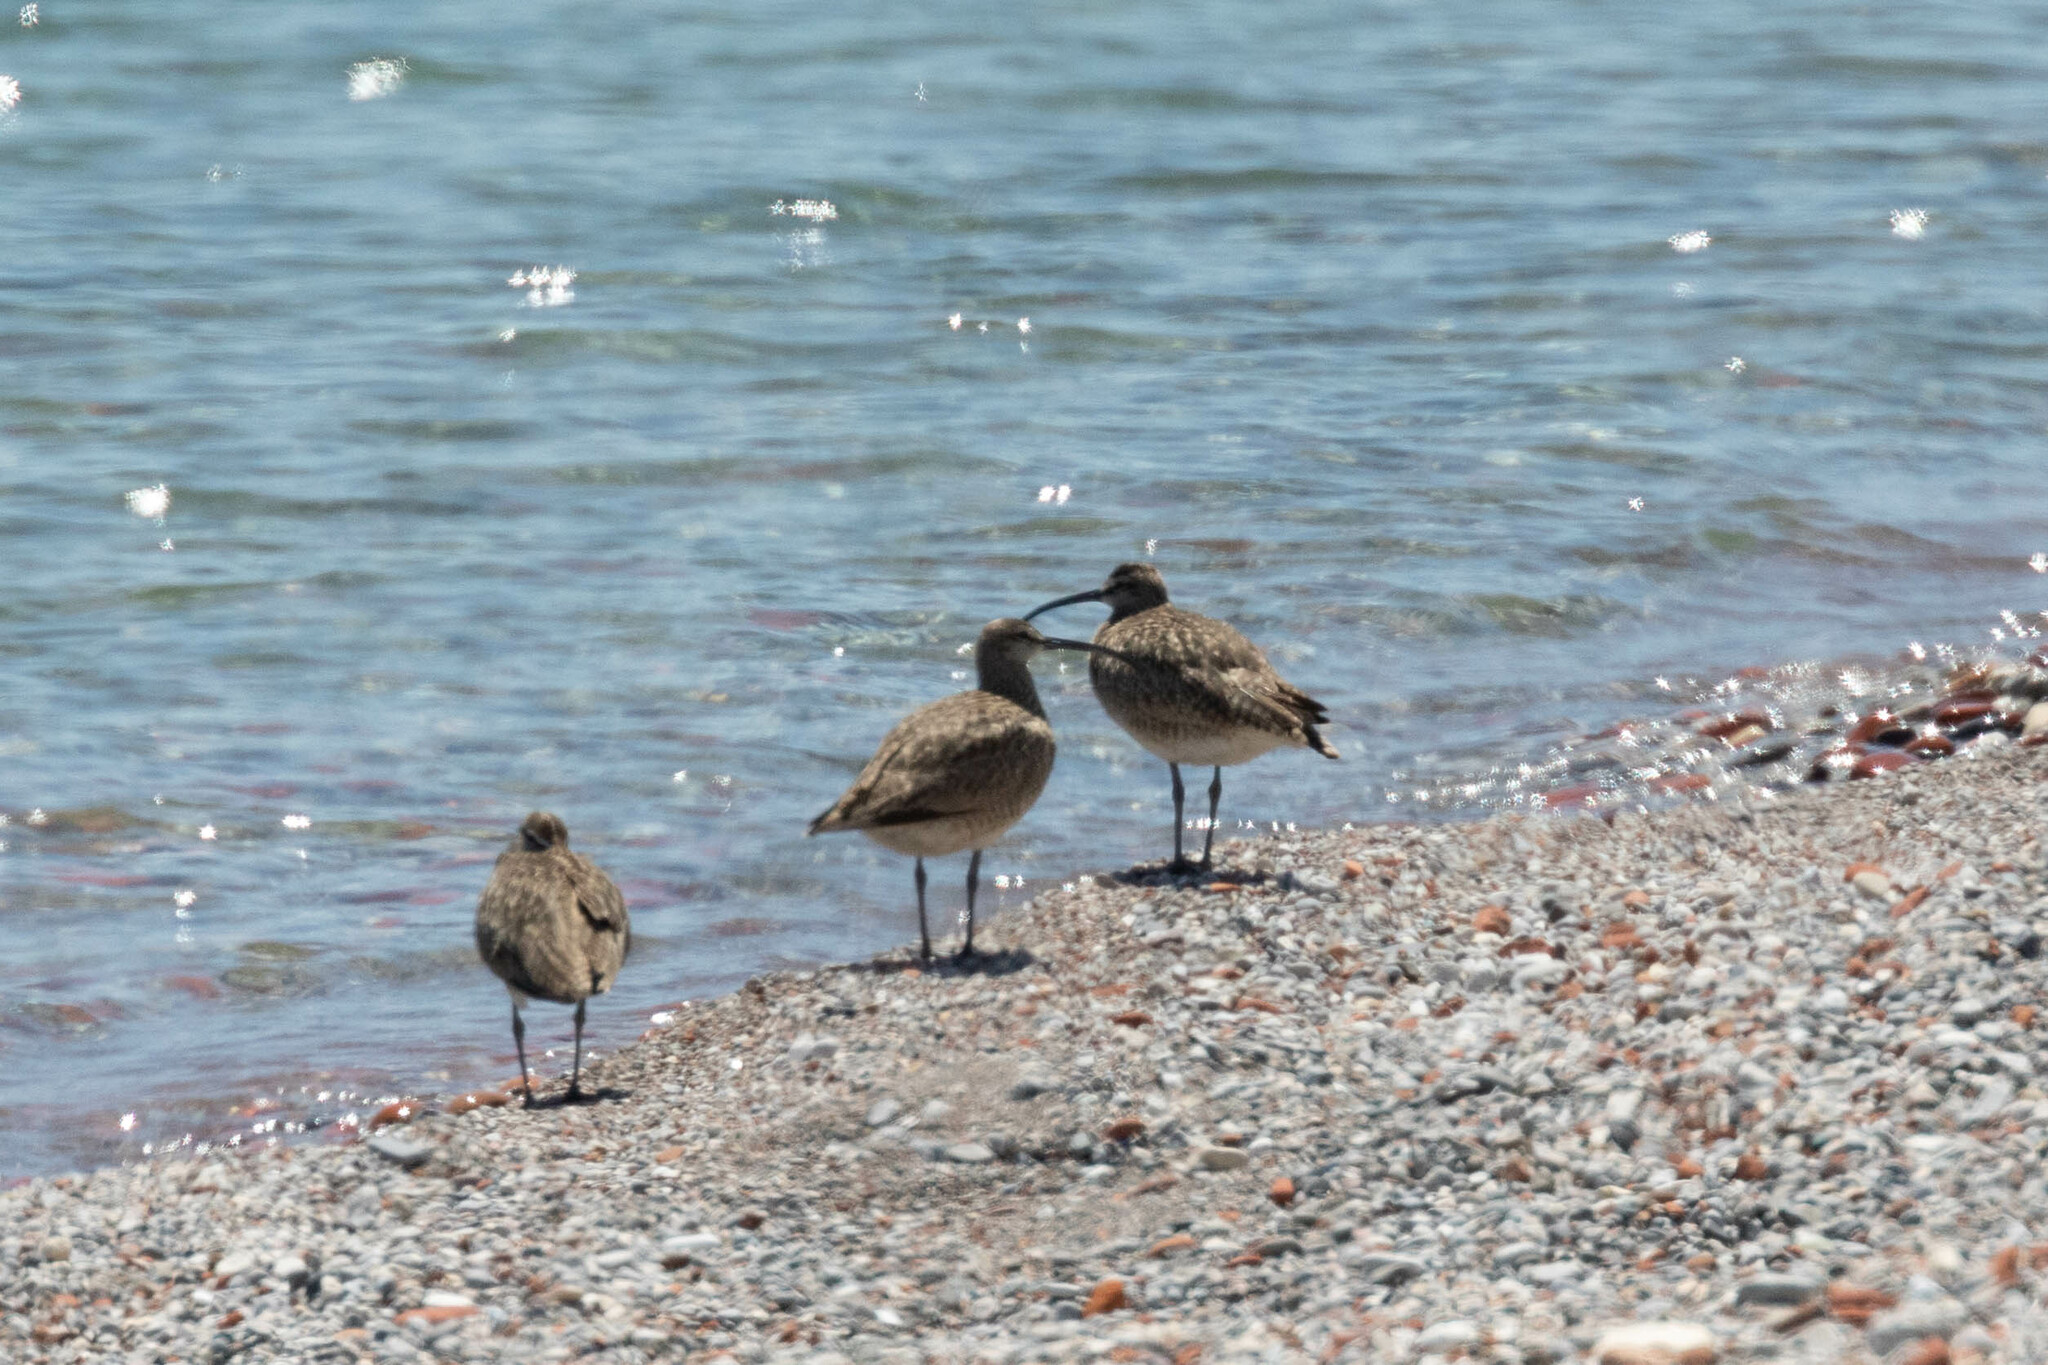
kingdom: Animalia
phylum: Chordata
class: Aves
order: Charadriiformes
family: Scolopacidae
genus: Numenius
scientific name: Numenius phaeopus
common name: Whimbrel
